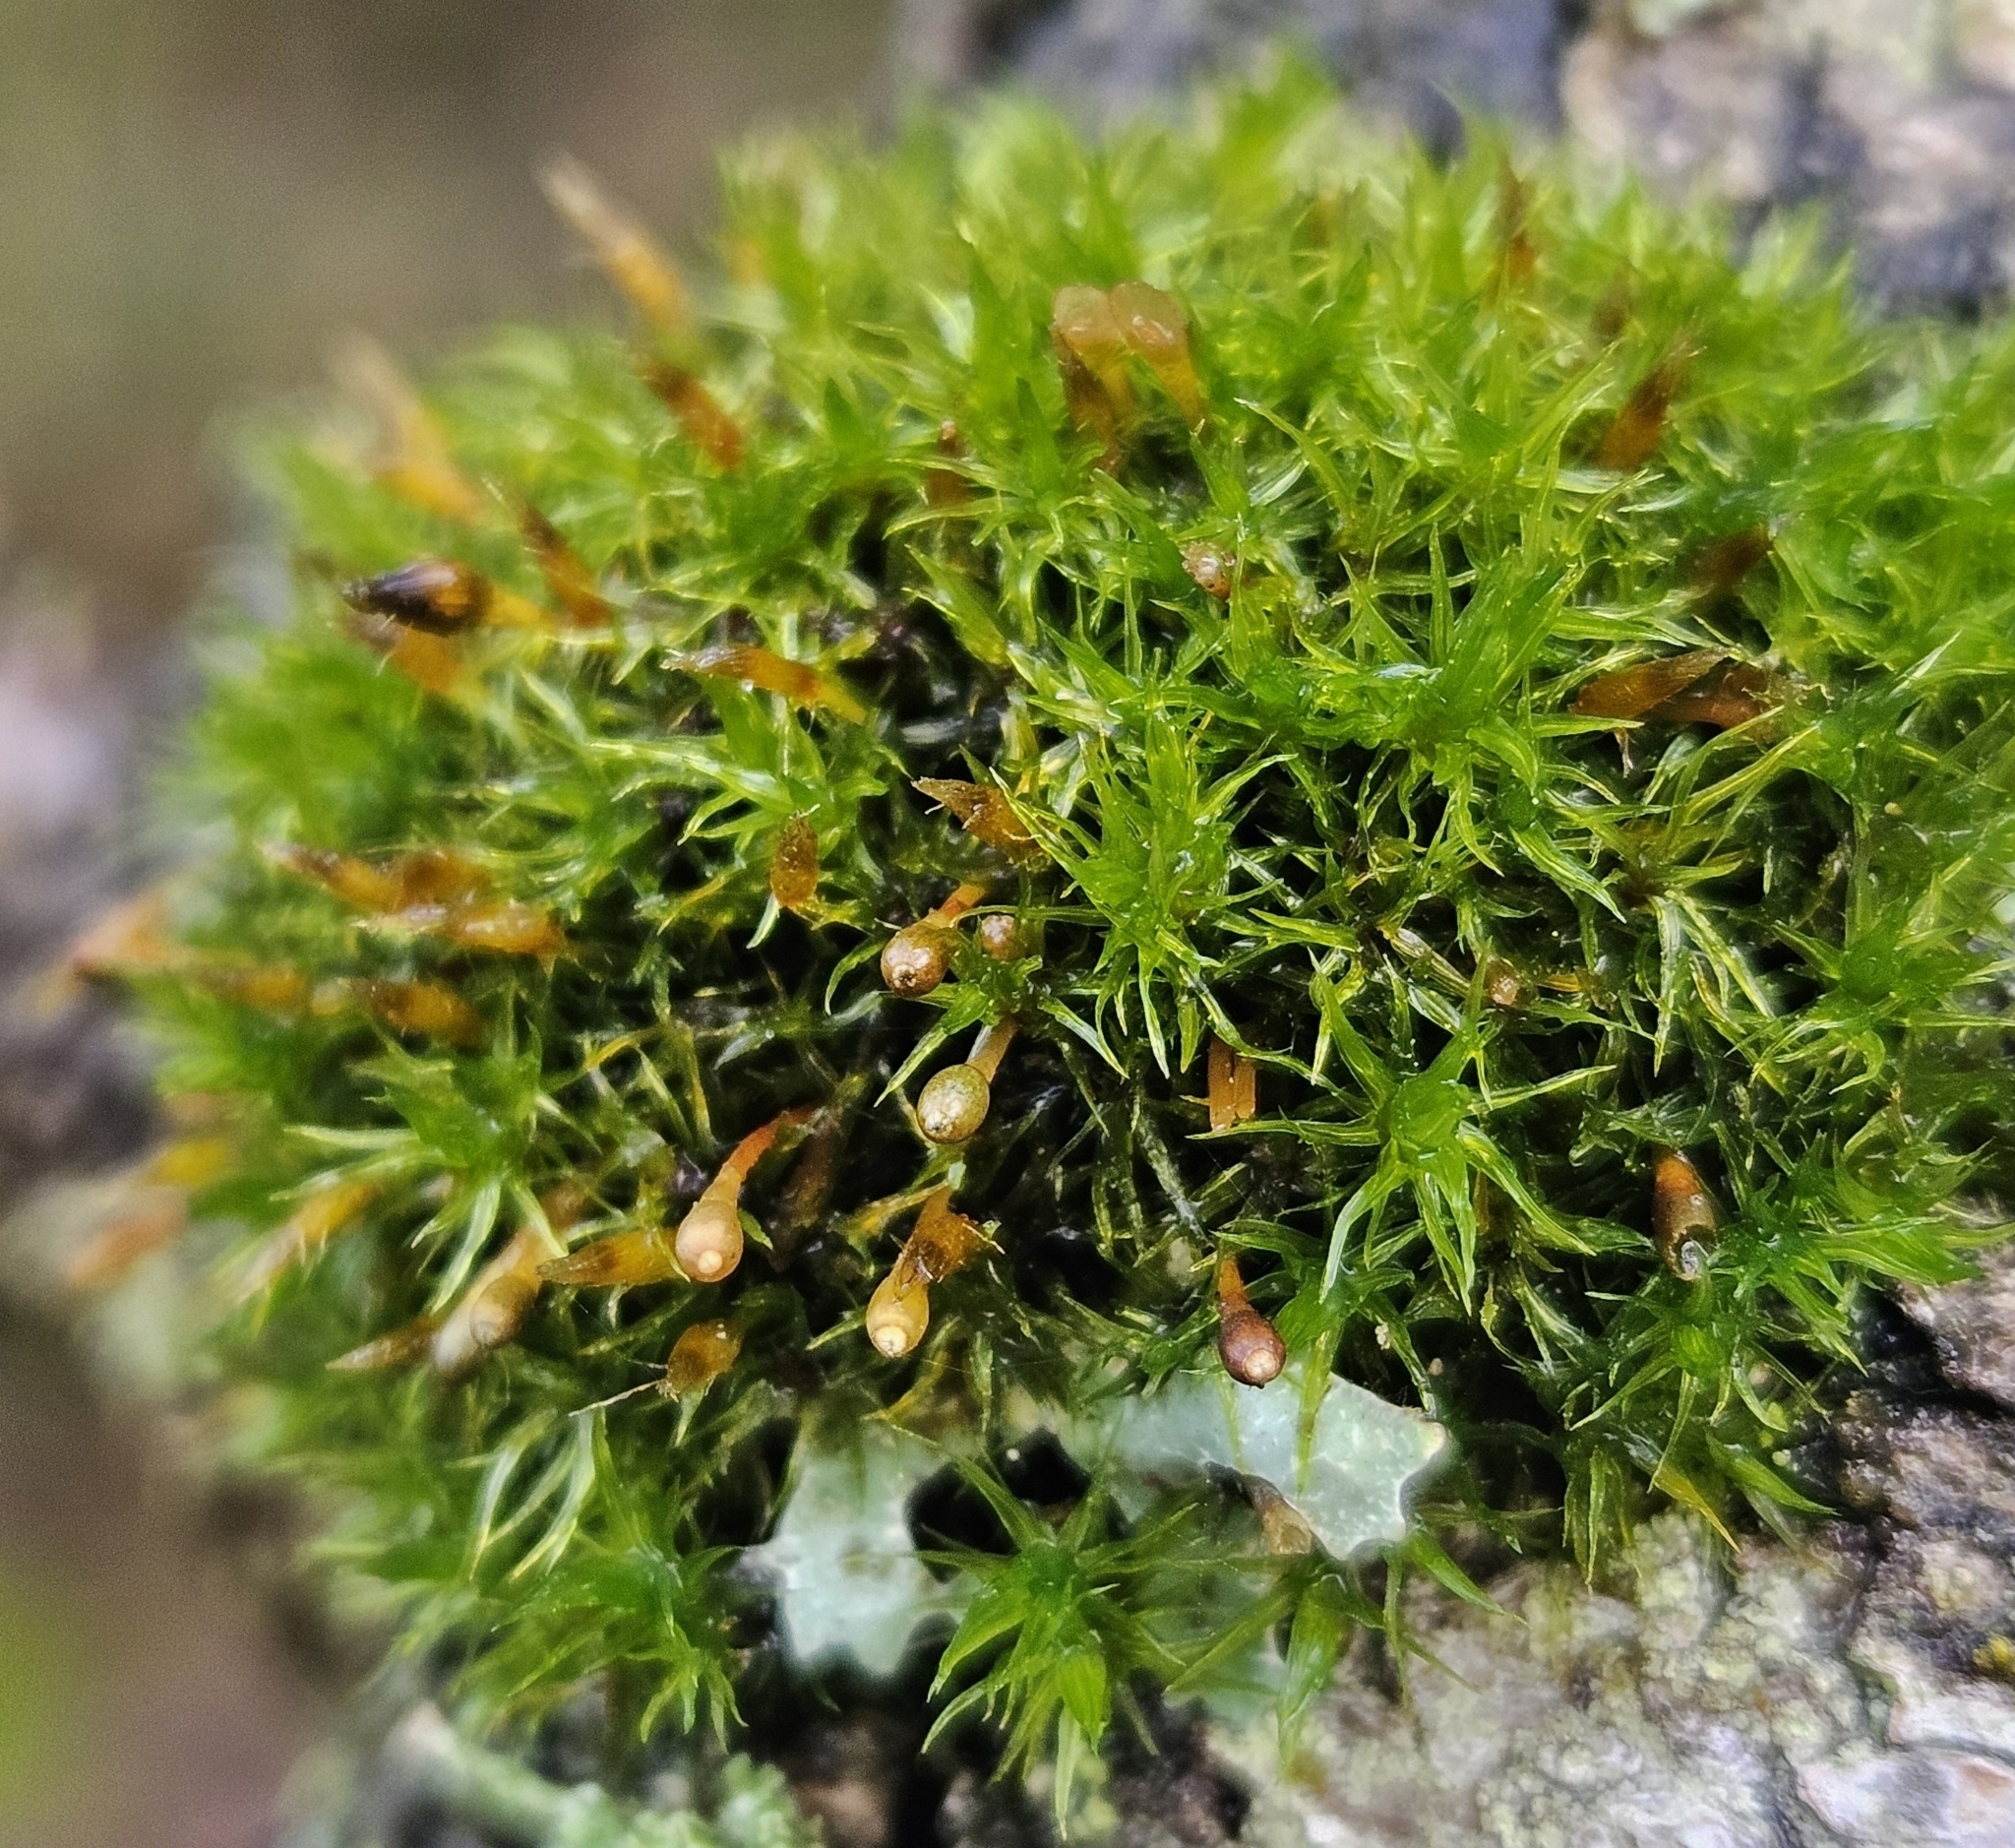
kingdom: Plantae
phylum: Bryophyta
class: Bryopsida
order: Orthotrichales
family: Orthotrichaceae
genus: Ulota
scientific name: Ulota bruchii
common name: Bruch's pincushion
